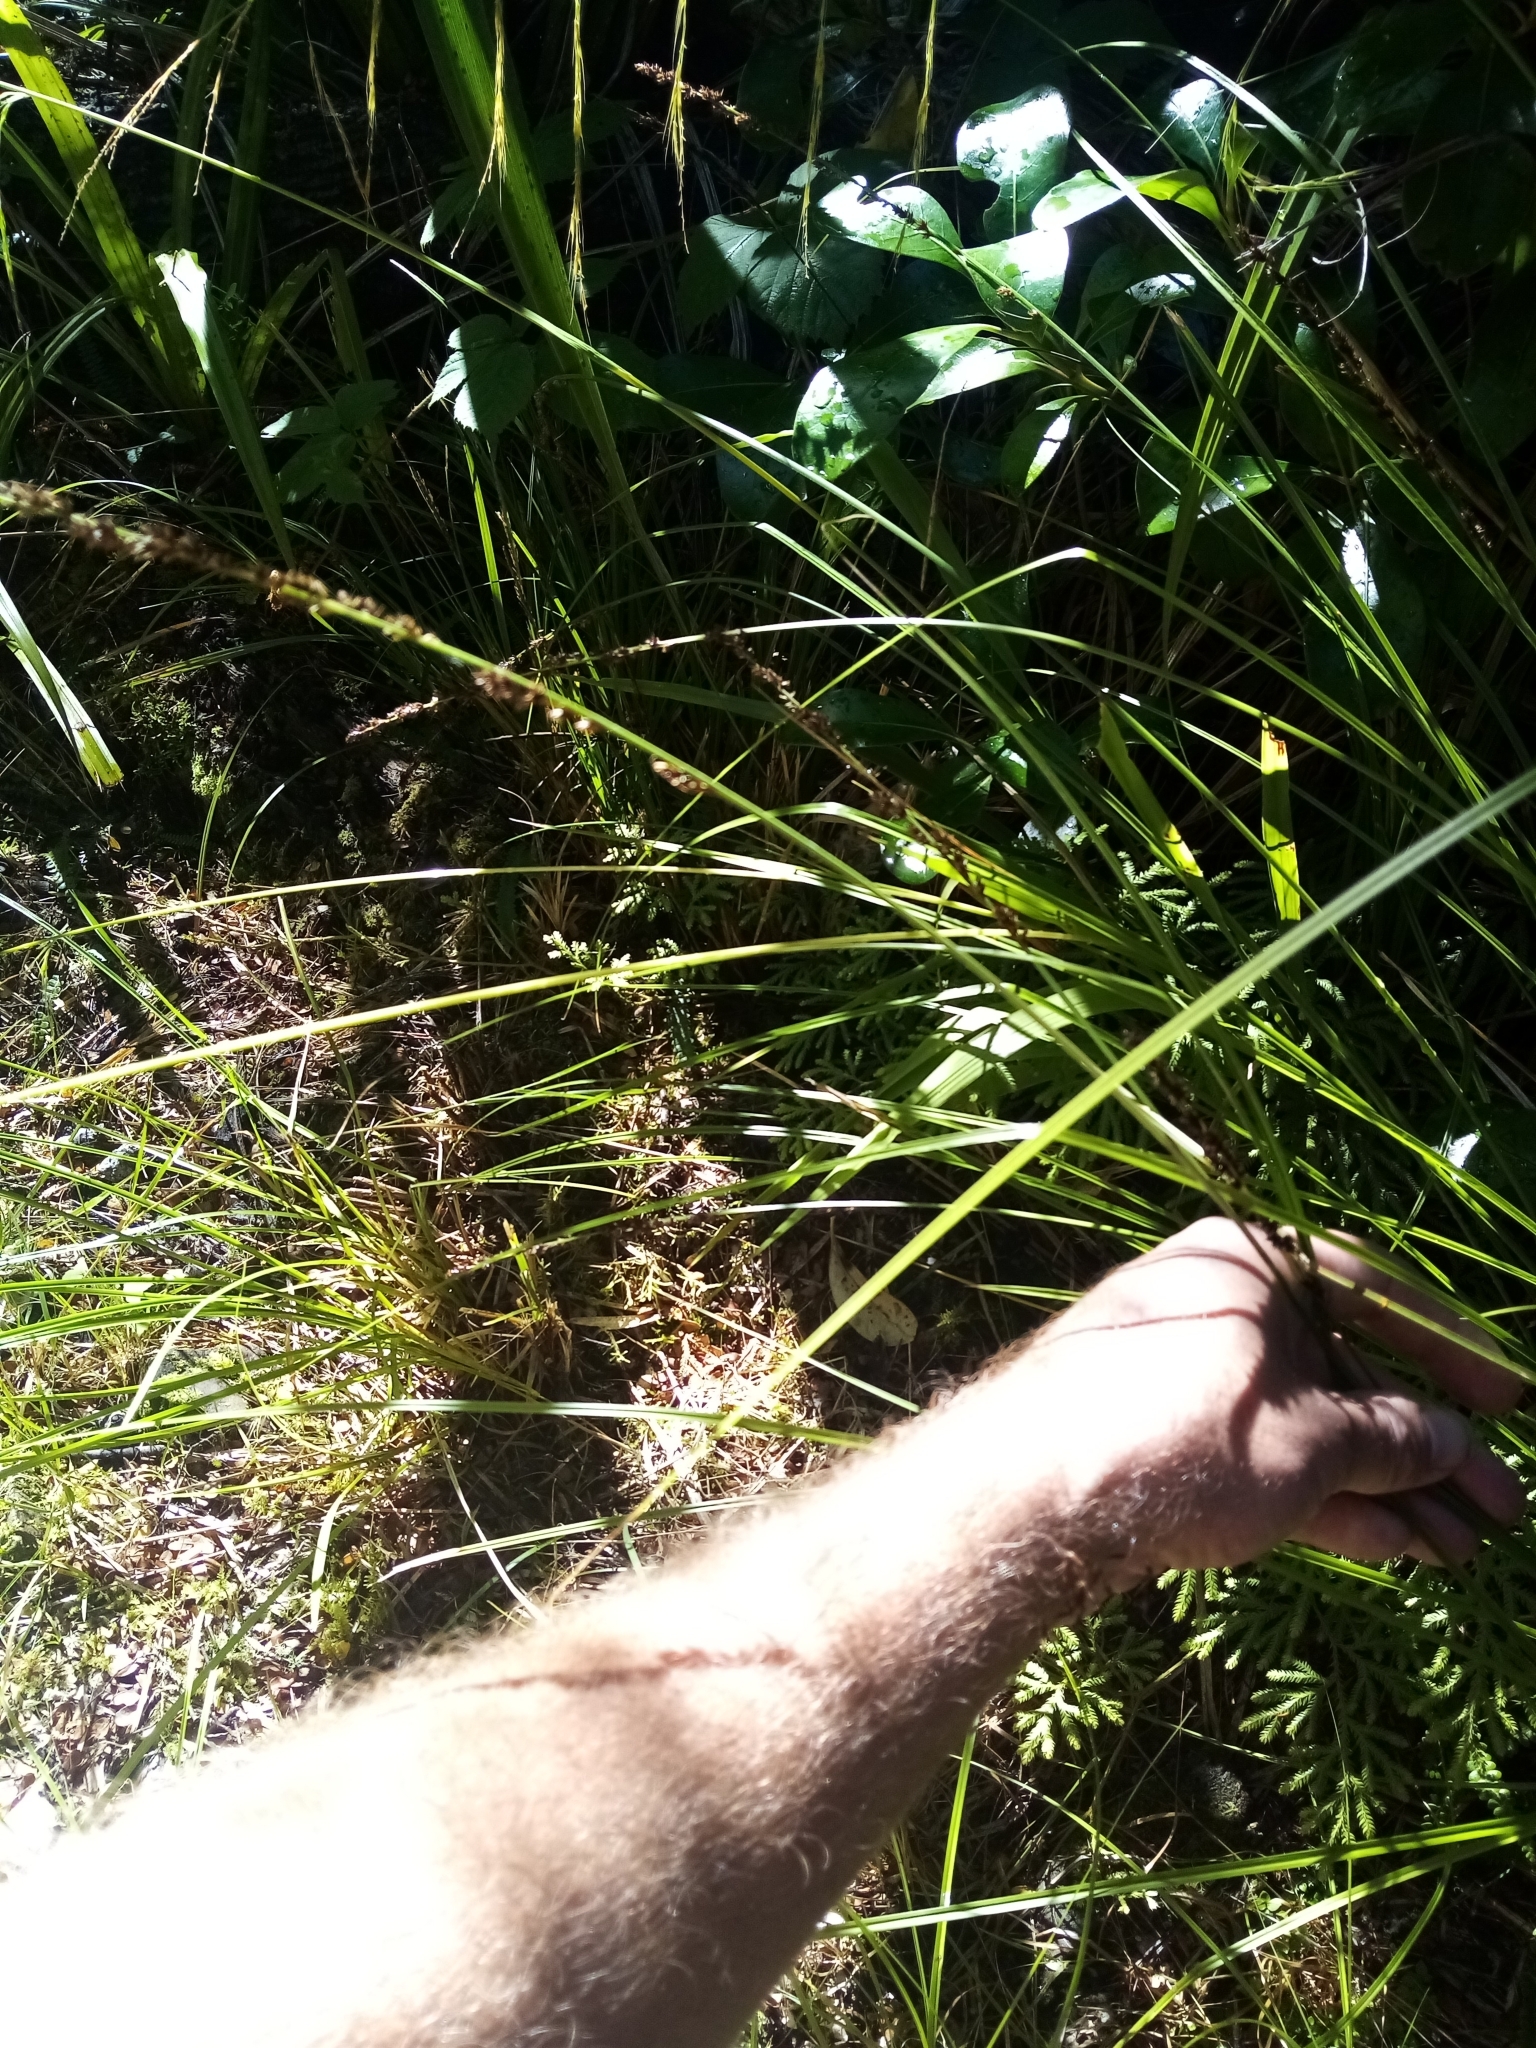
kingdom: Plantae
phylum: Tracheophyta
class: Liliopsida
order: Poales
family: Cyperaceae
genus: Carex
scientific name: Carex virgata
